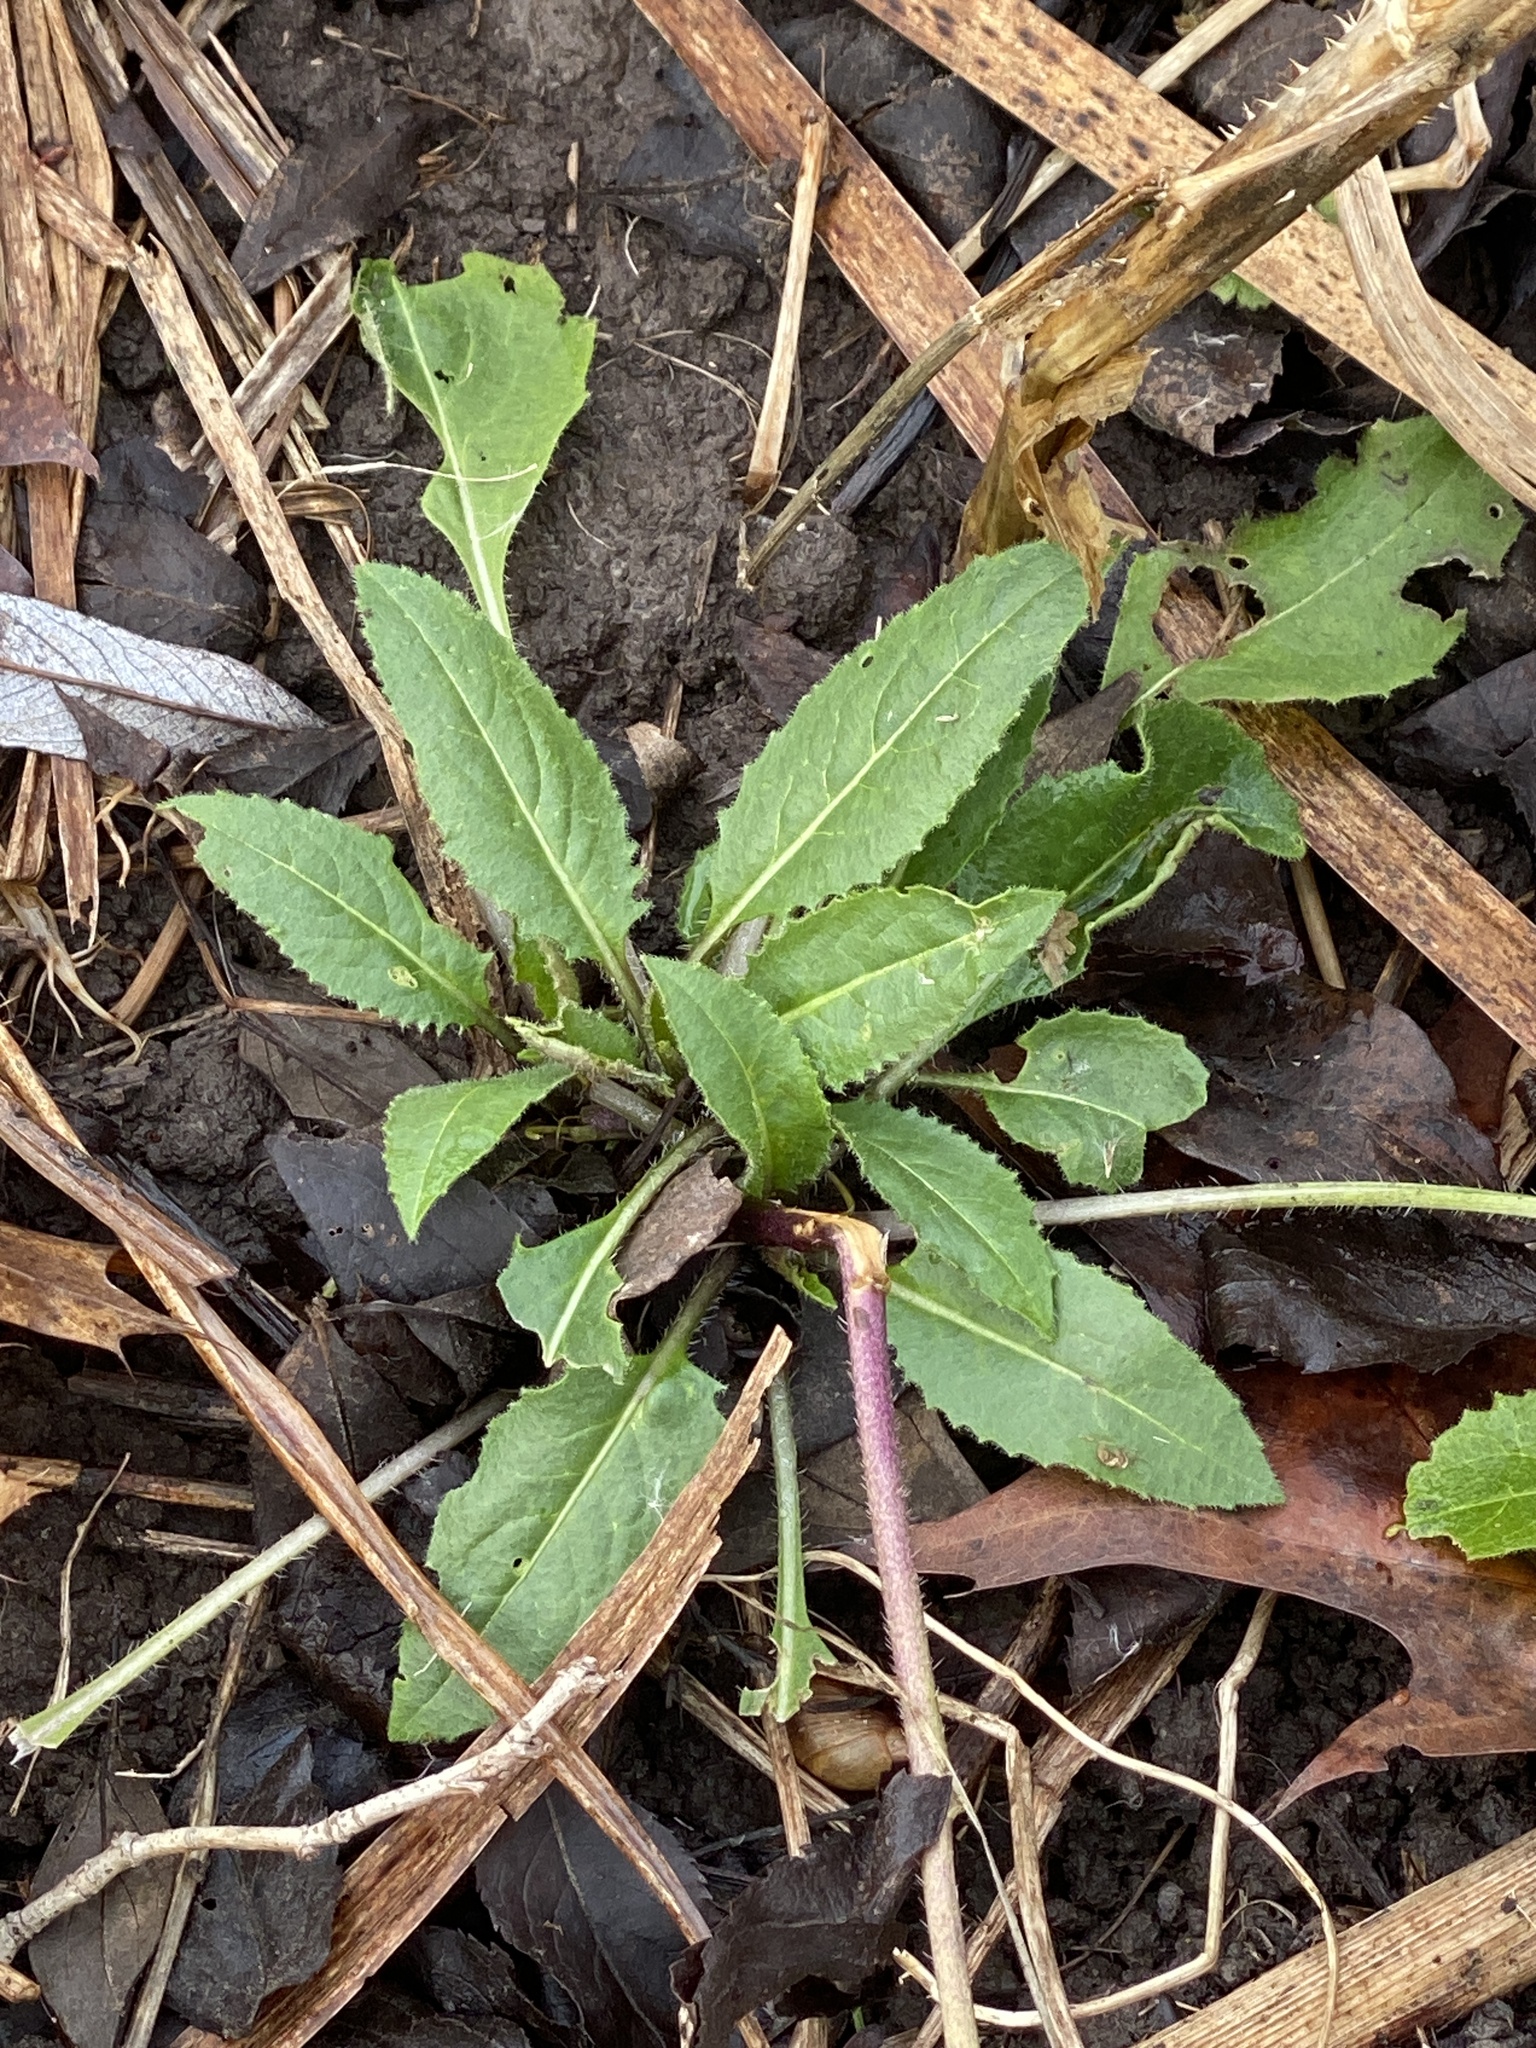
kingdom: Plantae
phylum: Tracheophyta
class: Magnoliopsida
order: Brassicales
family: Brassicaceae
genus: Hesperis
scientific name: Hesperis matronalis
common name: Dame's-violet
